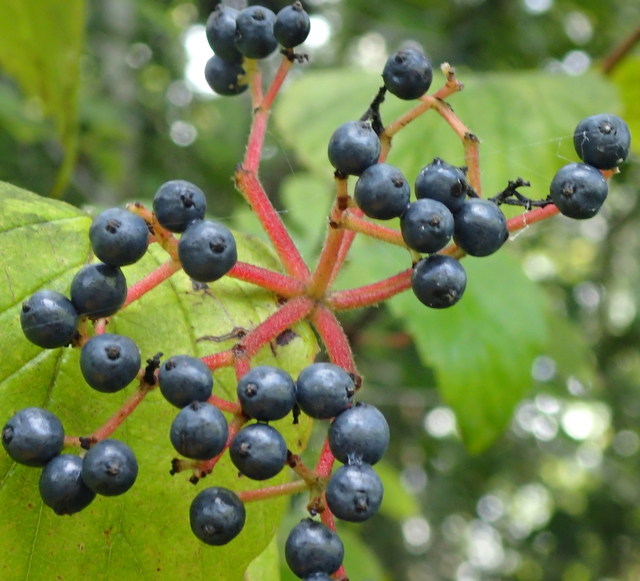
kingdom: Plantae
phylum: Tracheophyta
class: Magnoliopsida
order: Dipsacales
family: Viburnaceae
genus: Viburnum
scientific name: Viburnum scabrellum
